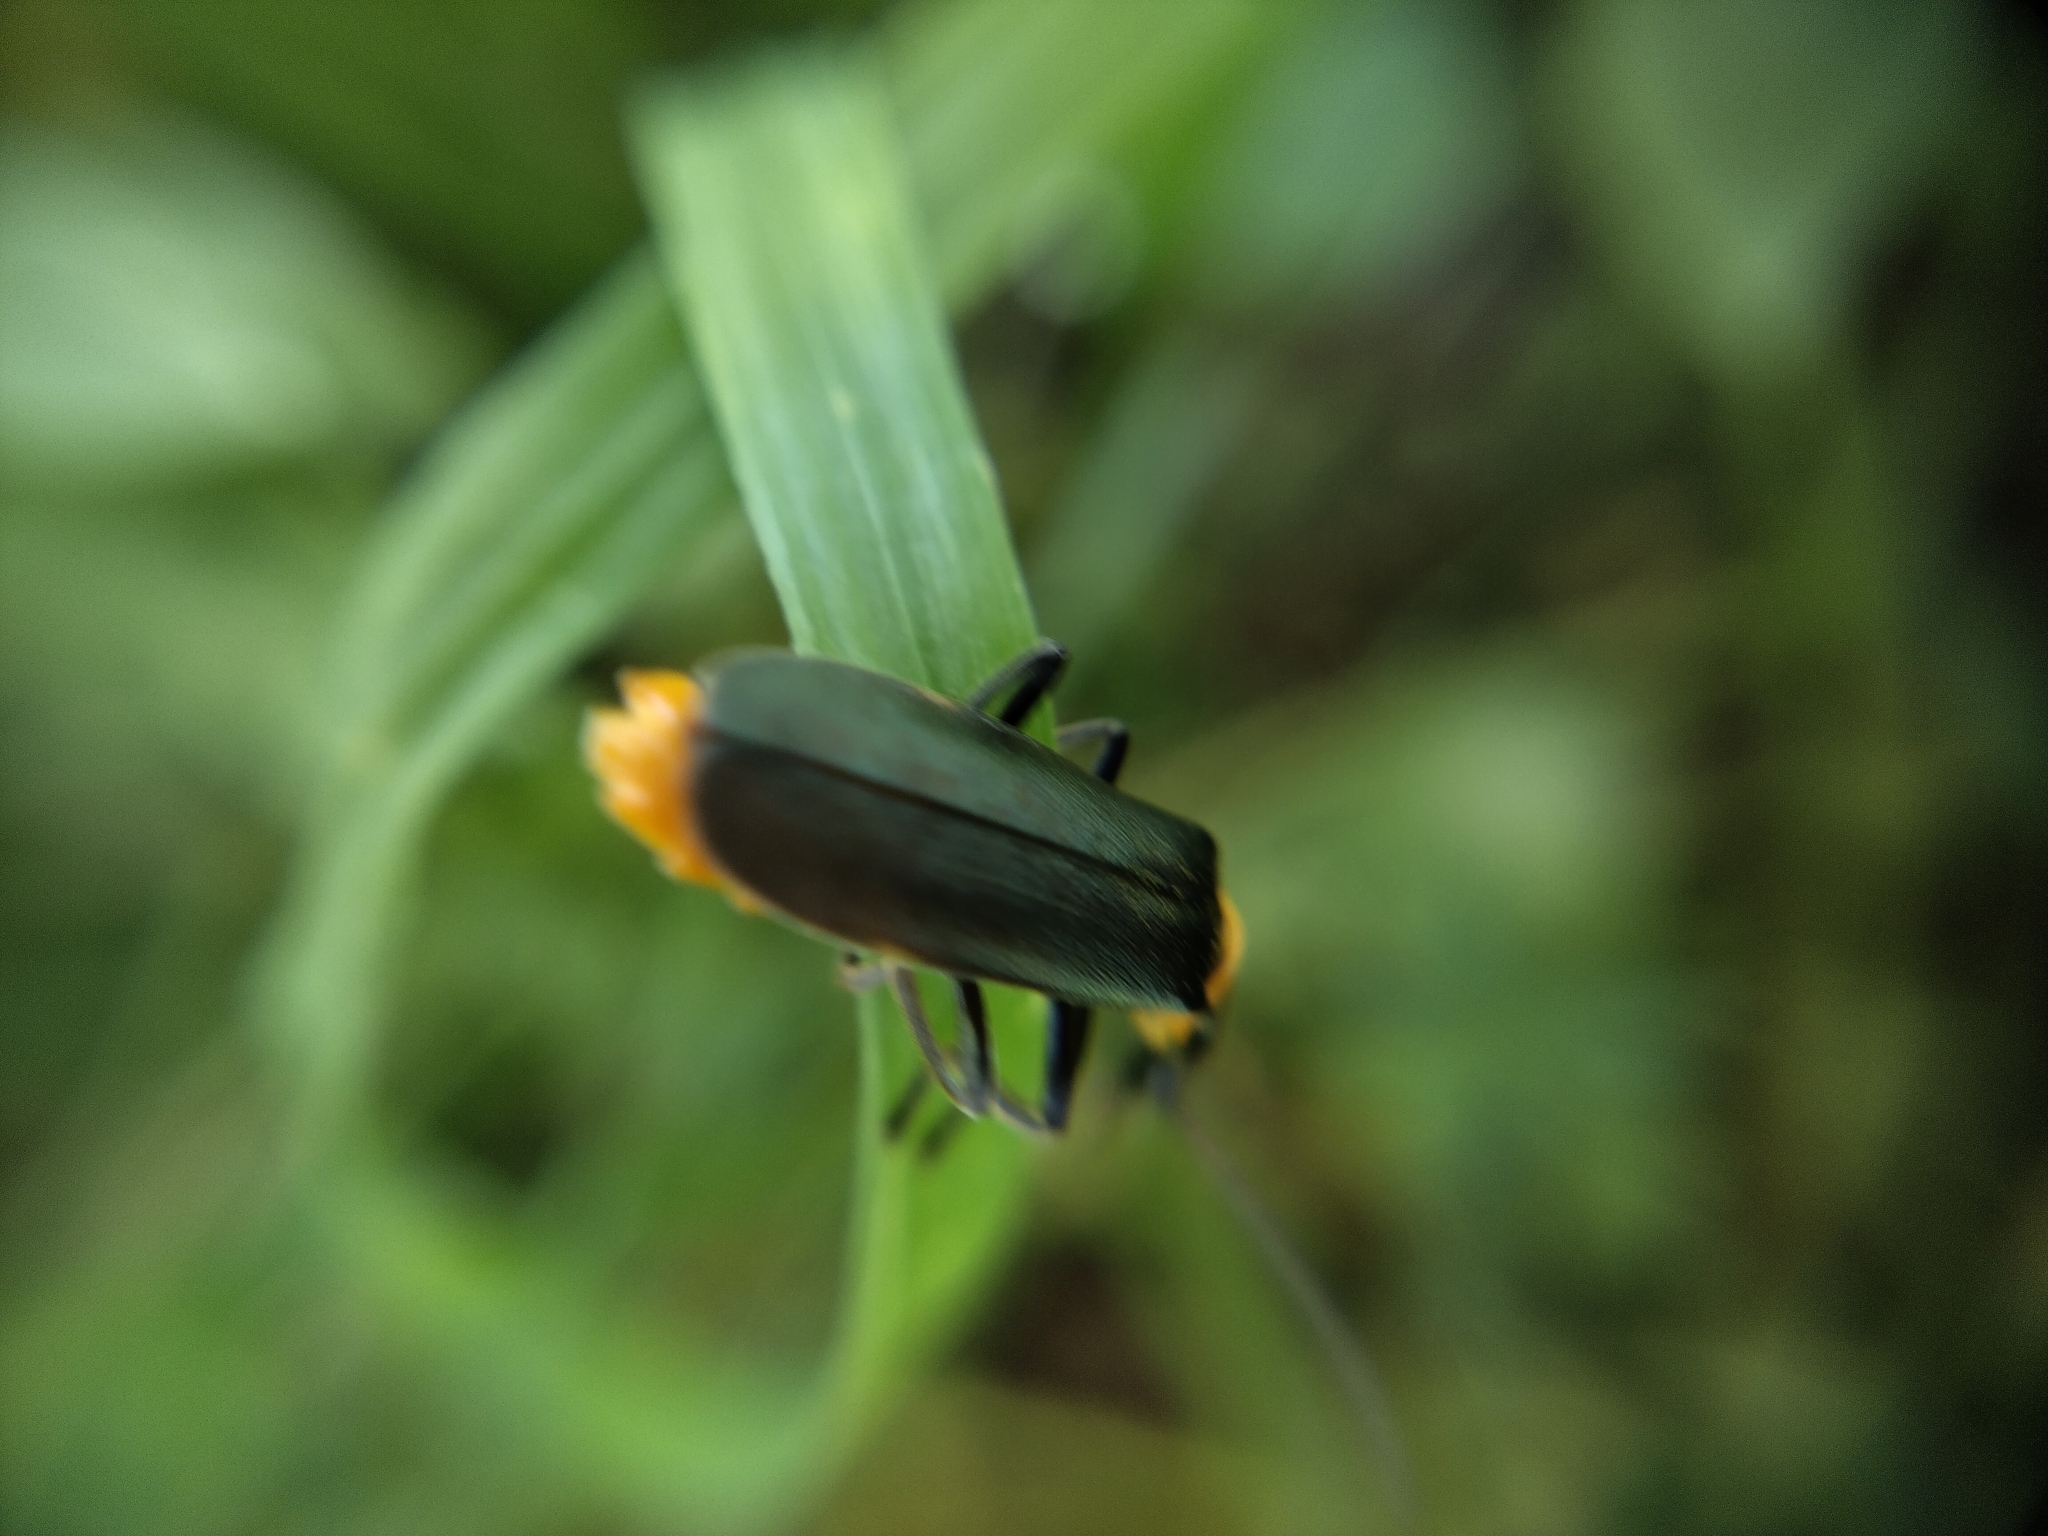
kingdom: Animalia
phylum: Arthropoda
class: Insecta
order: Coleoptera
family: Cantharidae
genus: Chauliognathus
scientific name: Chauliognathus
